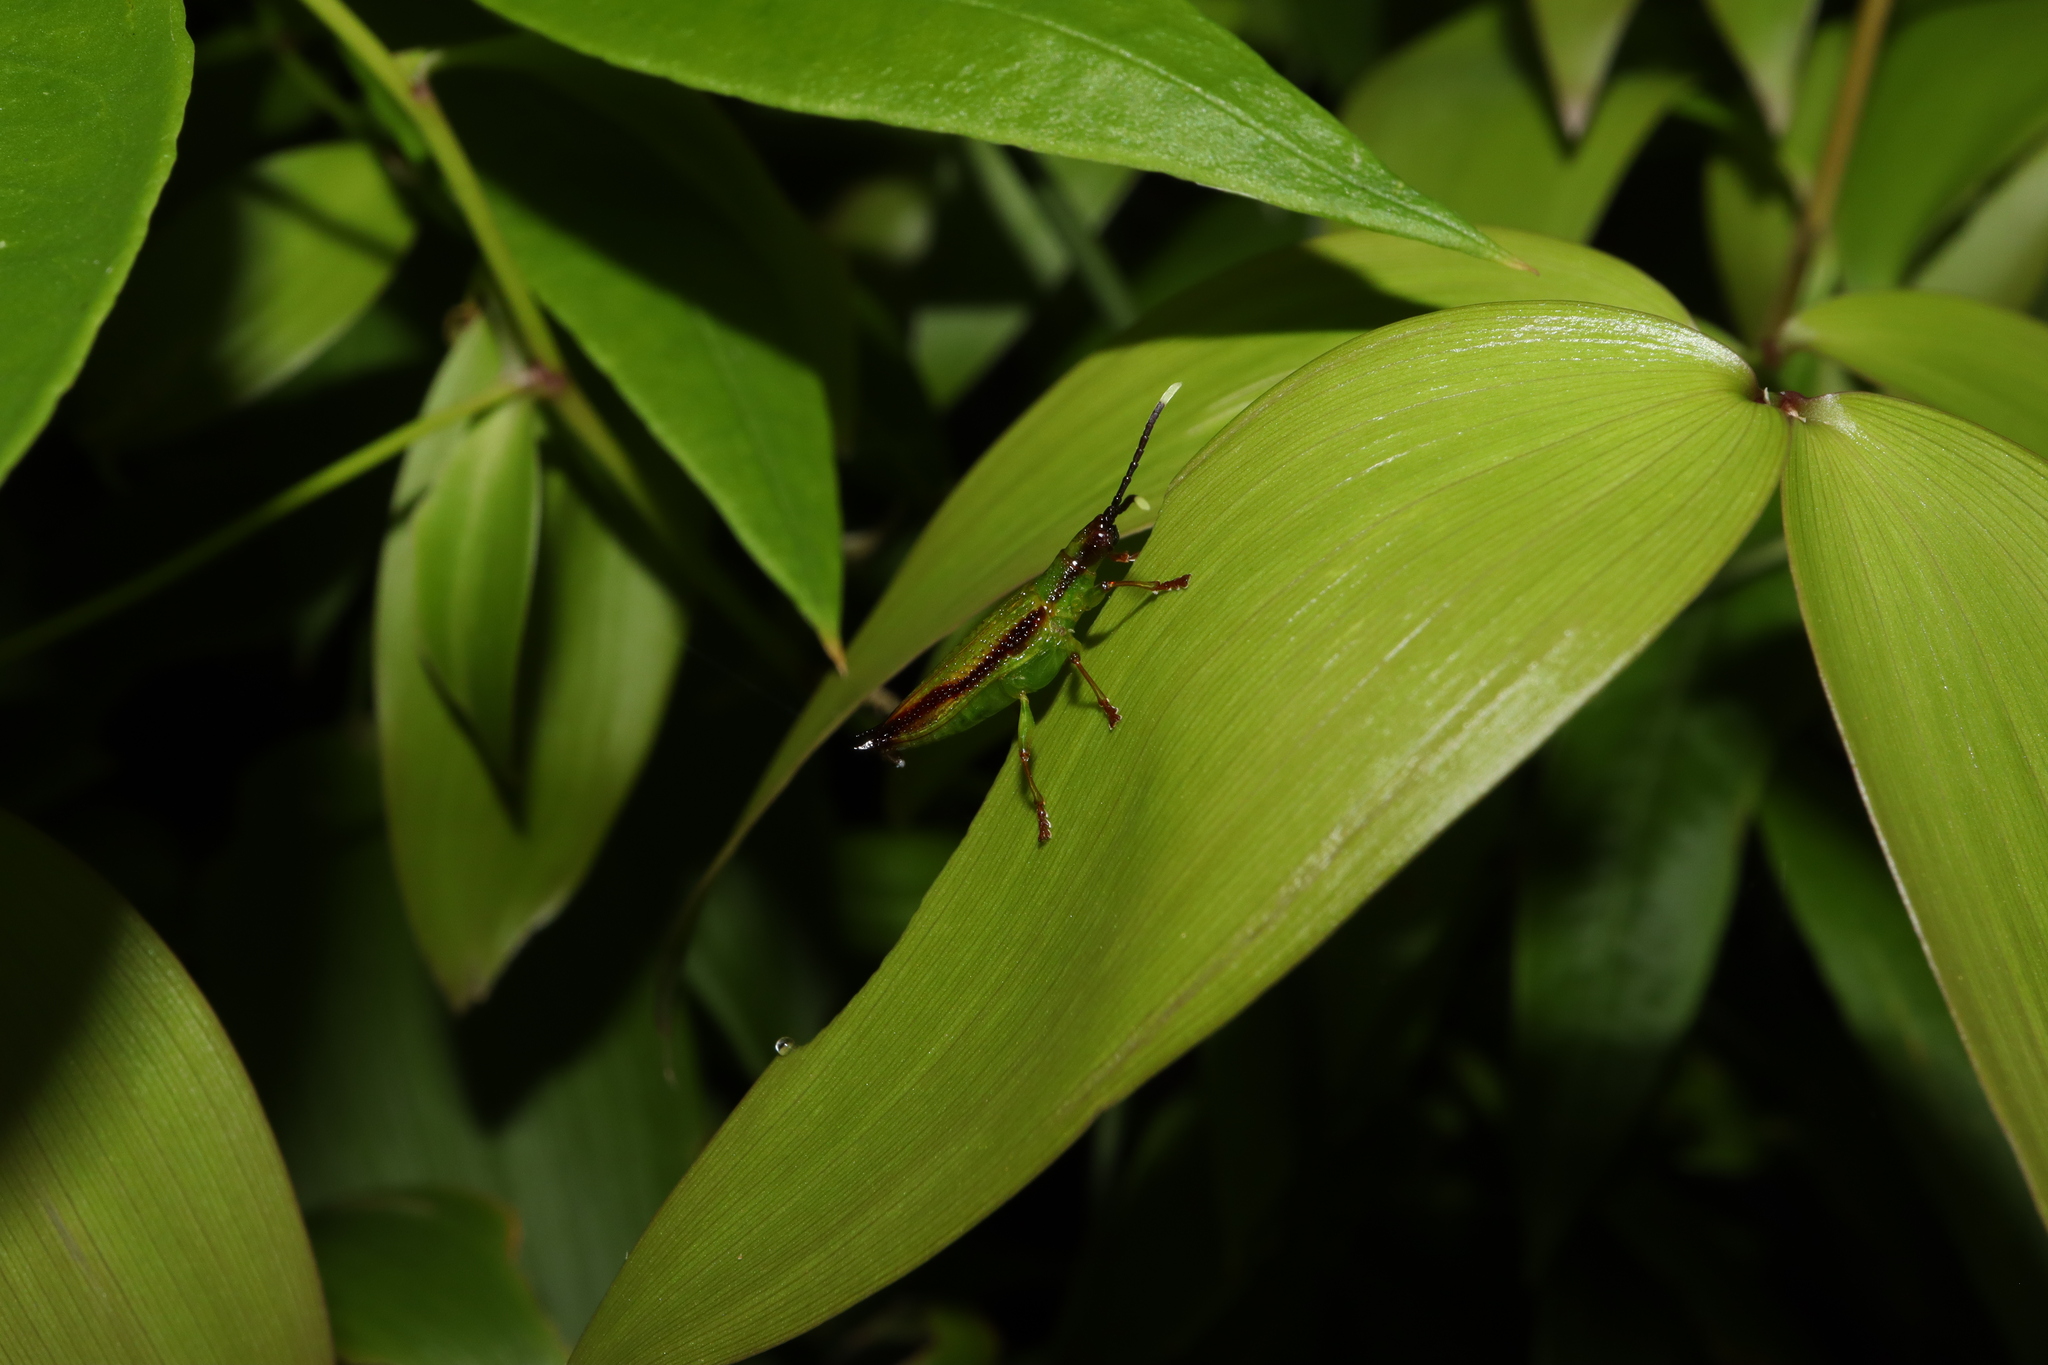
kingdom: Animalia
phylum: Arthropoda
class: Insecta
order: Coleoptera
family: Chrysomelidae
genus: Aproida
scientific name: Aproida balyi
